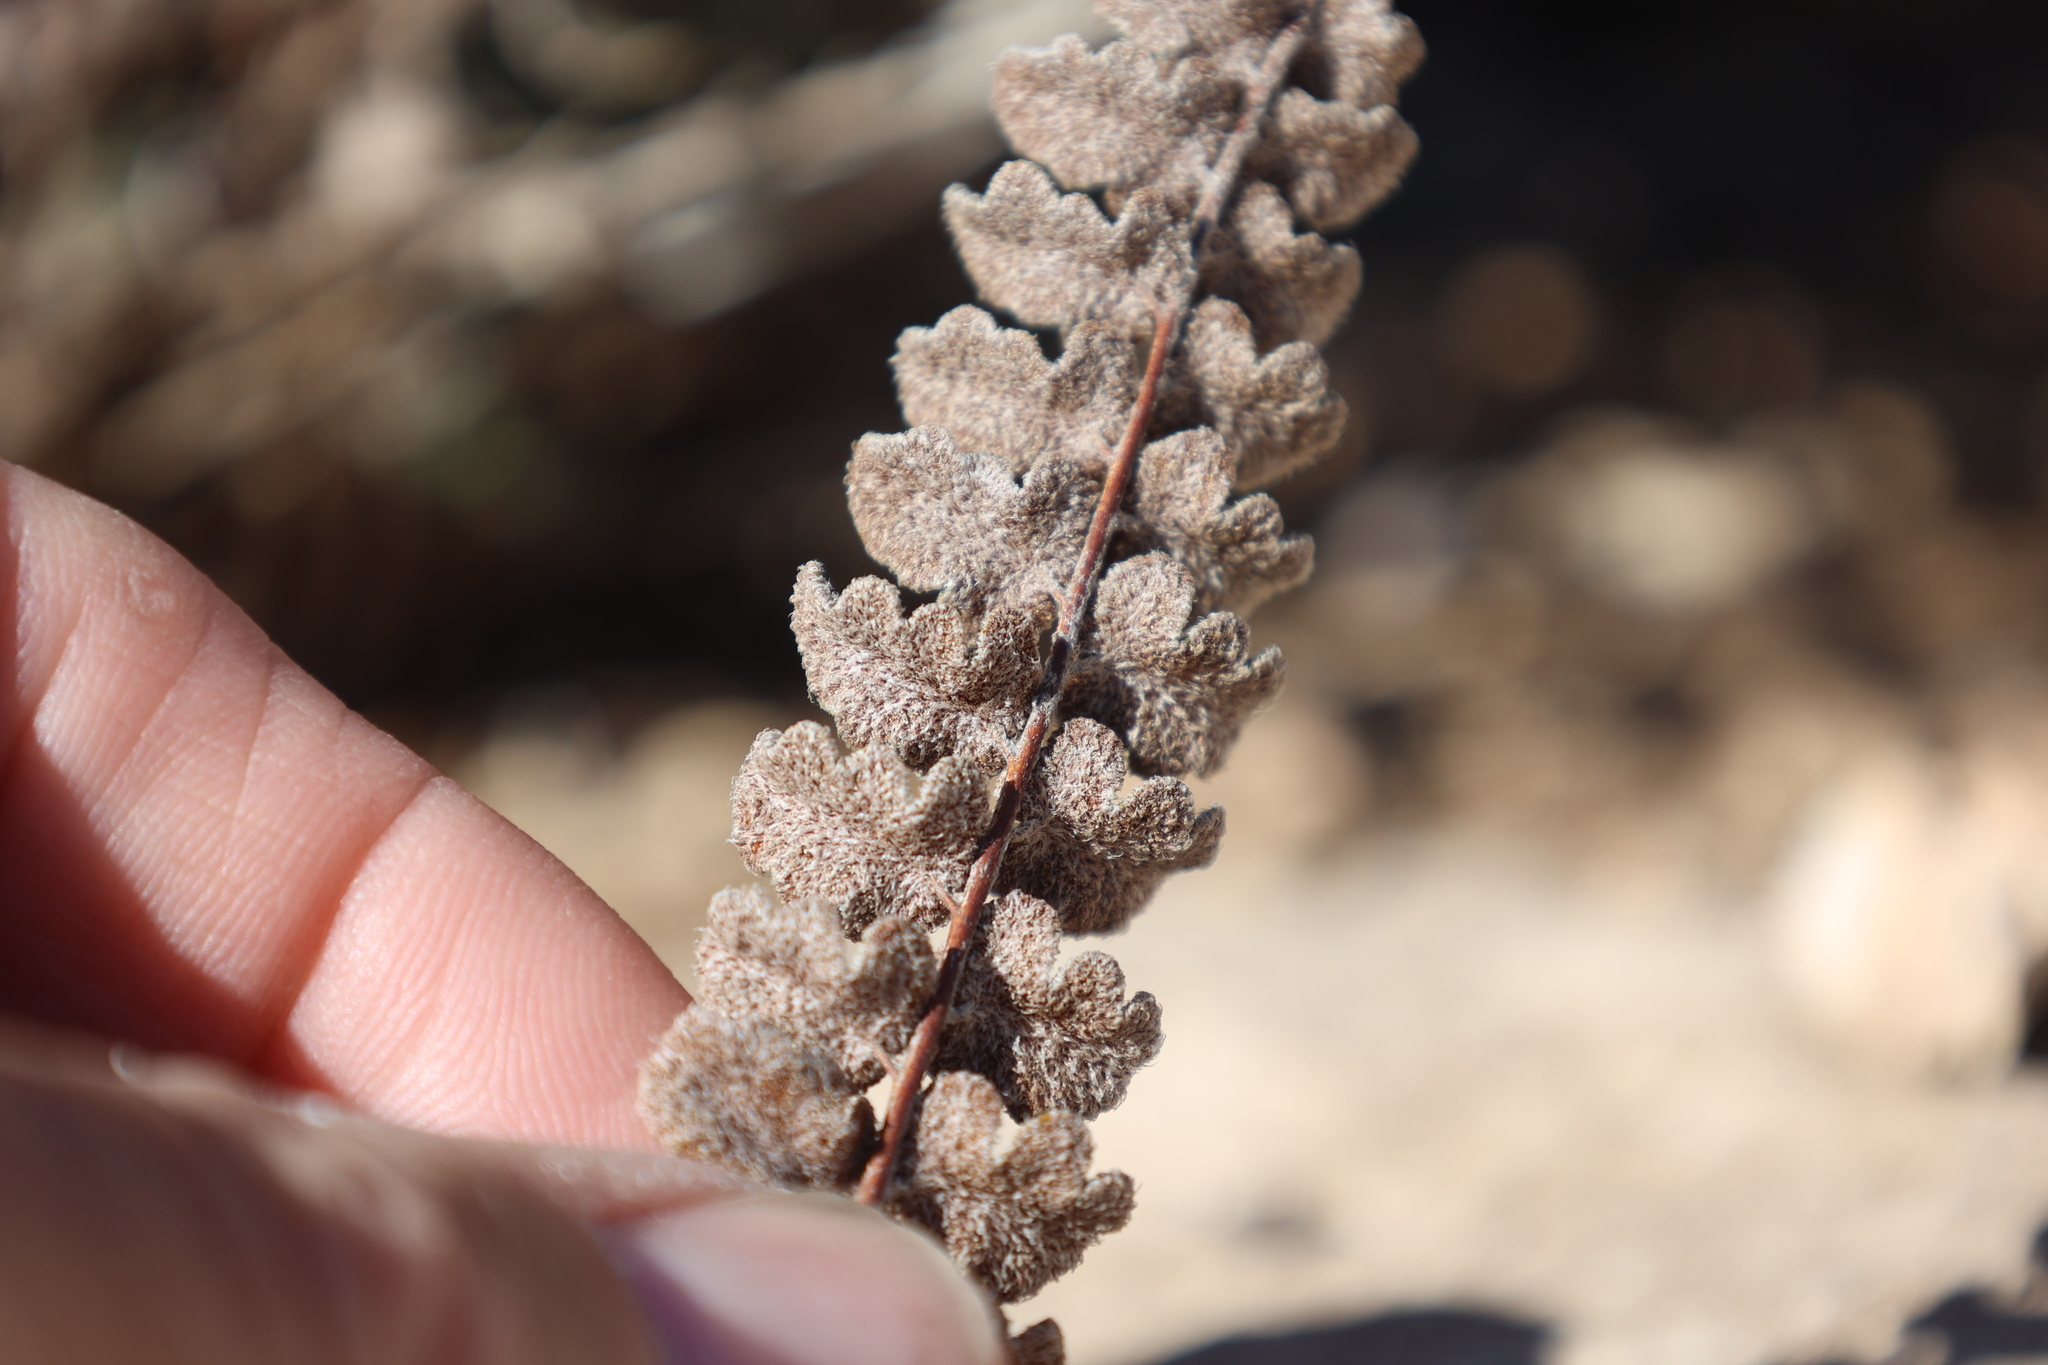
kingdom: Plantae
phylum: Tracheophyta
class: Polypodiopsida
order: Polypodiales
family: Pteridaceae
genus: Astrolepis
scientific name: Astrolepis windhamii
